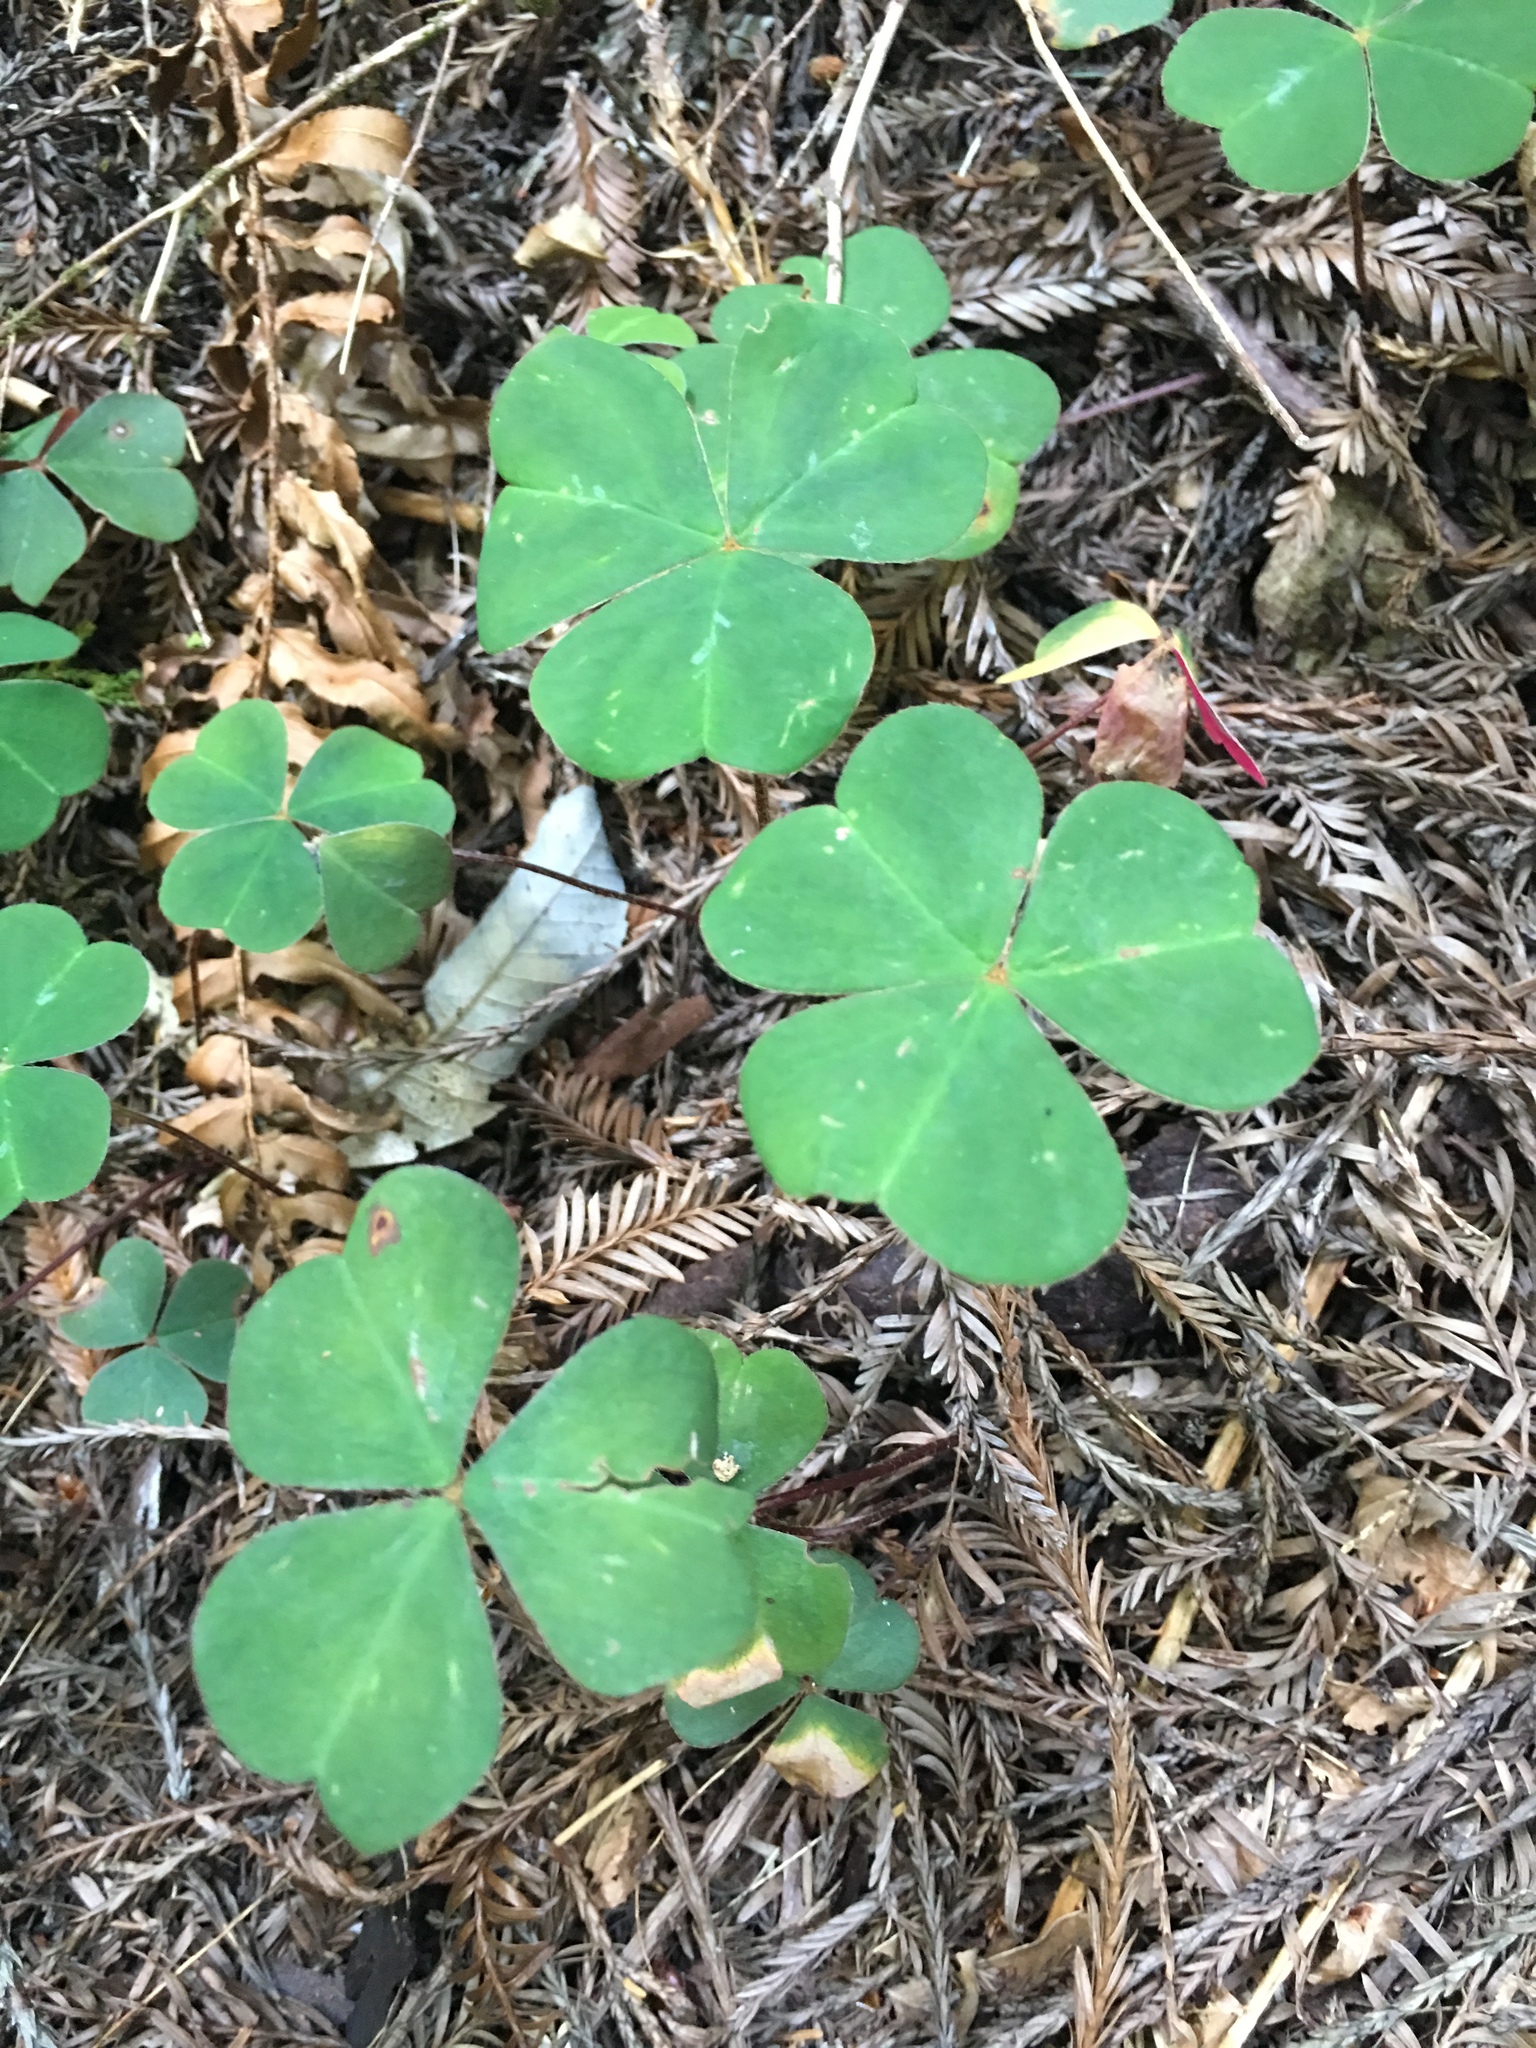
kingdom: Plantae
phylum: Tracheophyta
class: Magnoliopsida
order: Oxalidales
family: Oxalidaceae
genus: Oxalis
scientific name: Oxalis oregana
